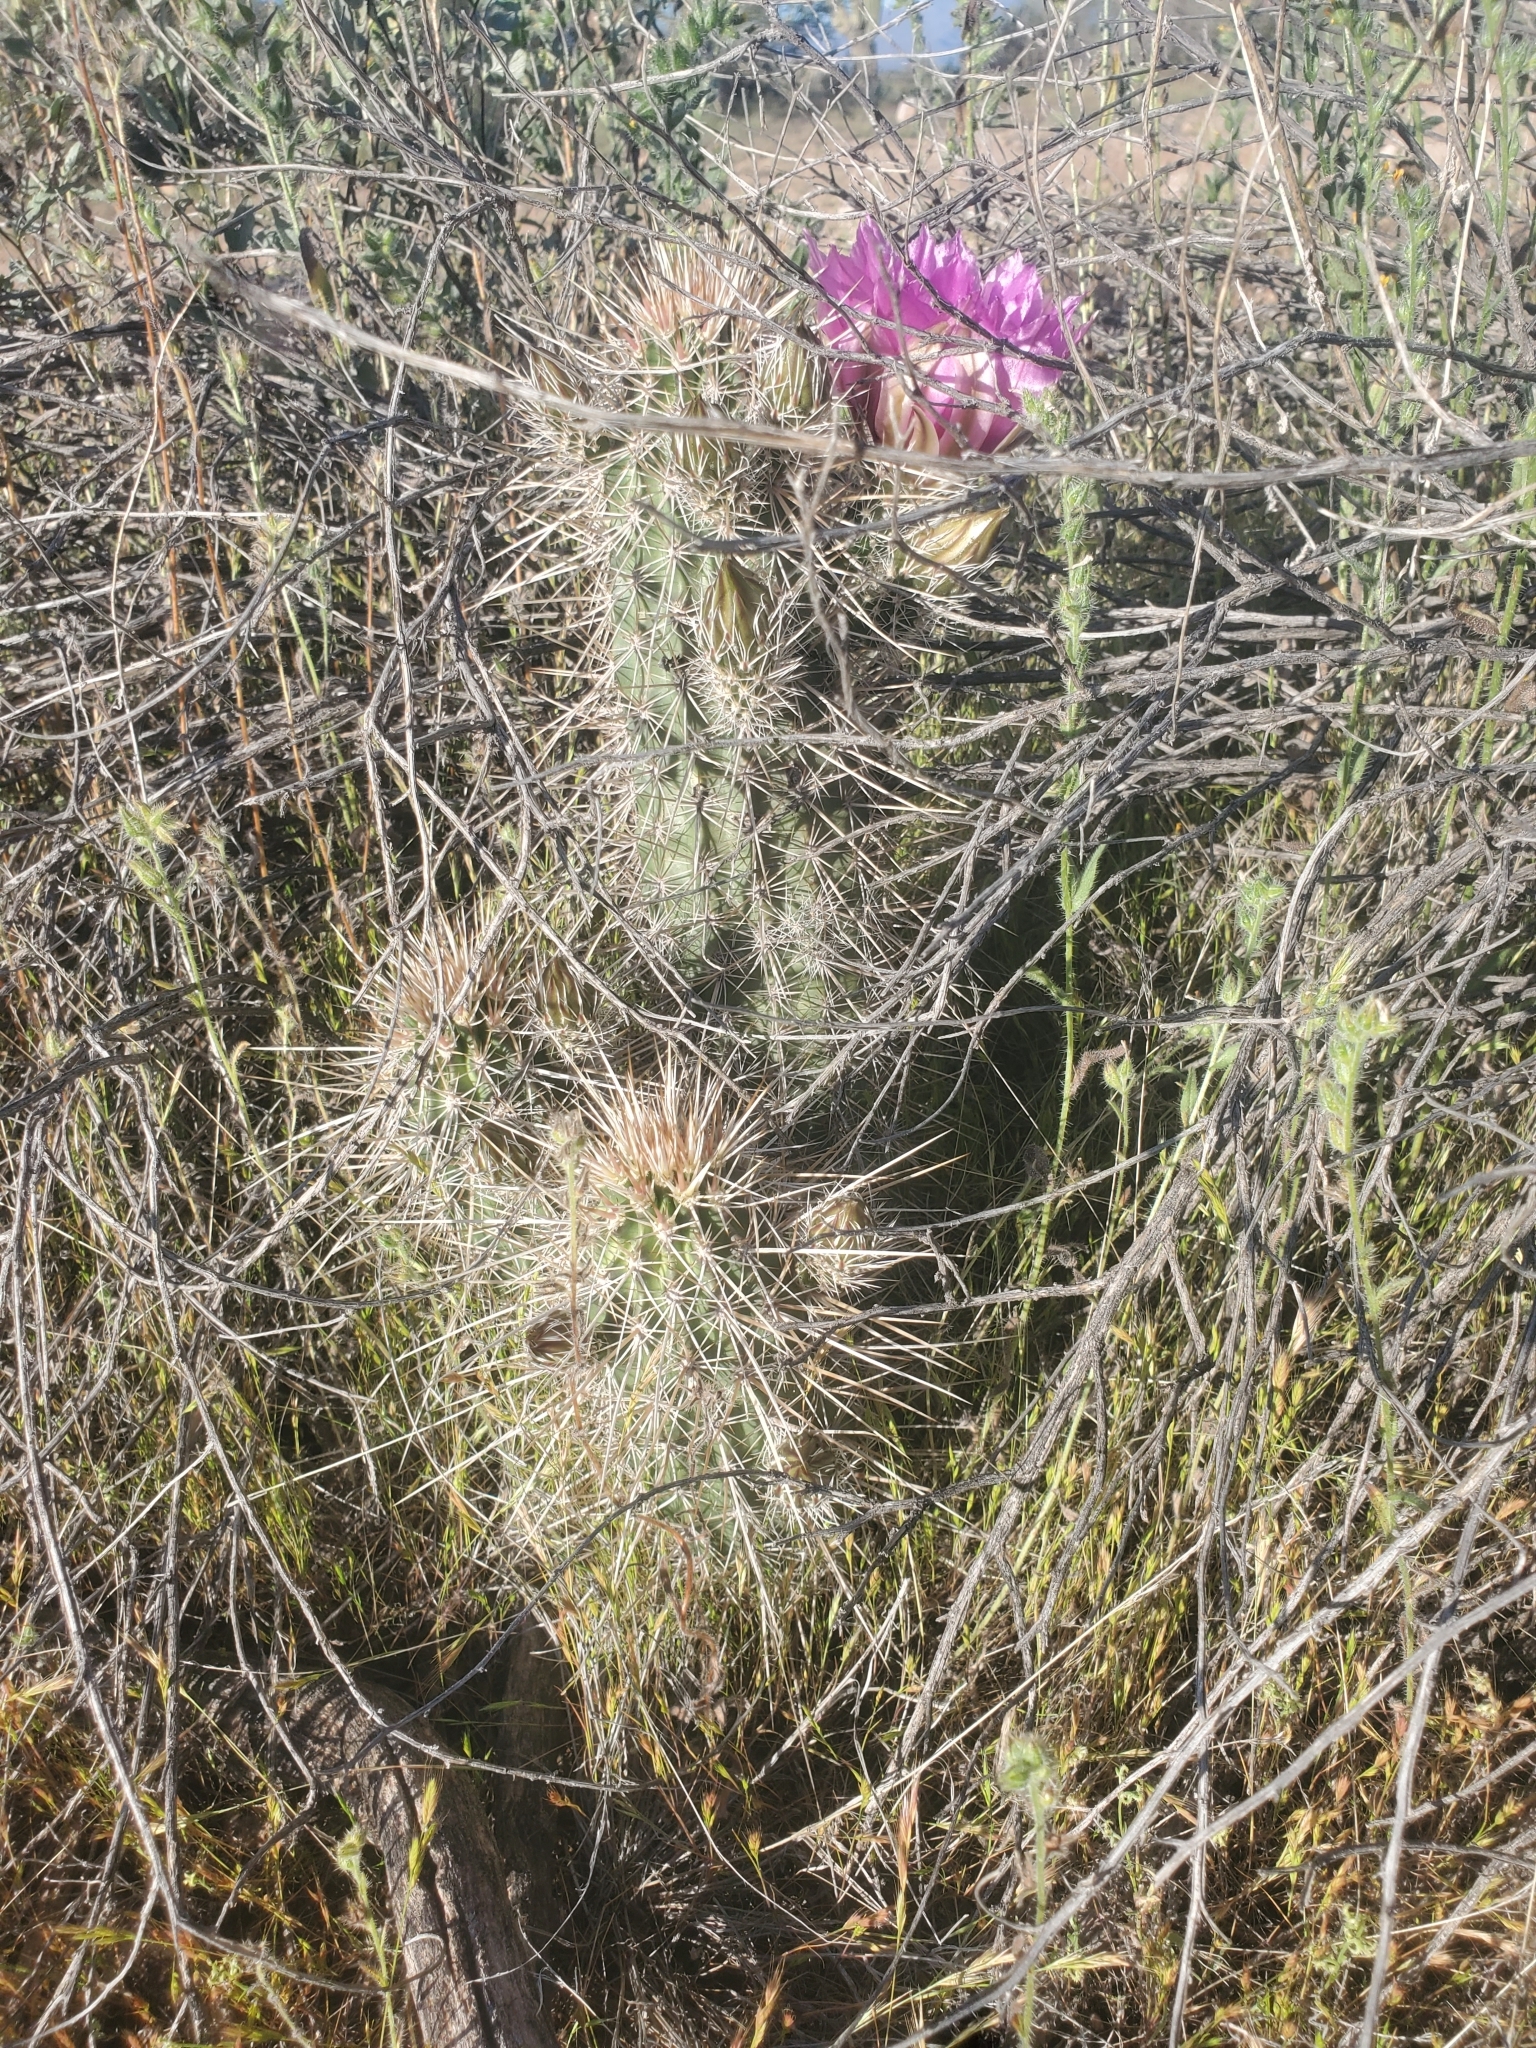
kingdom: Plantae
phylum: Tracheophyta
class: Magnoliopsida
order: Caryophyllales
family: Cactaceae
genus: Echinocereus
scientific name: Echinocereus engelmannii
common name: Engelmann's hedgehog cactus
